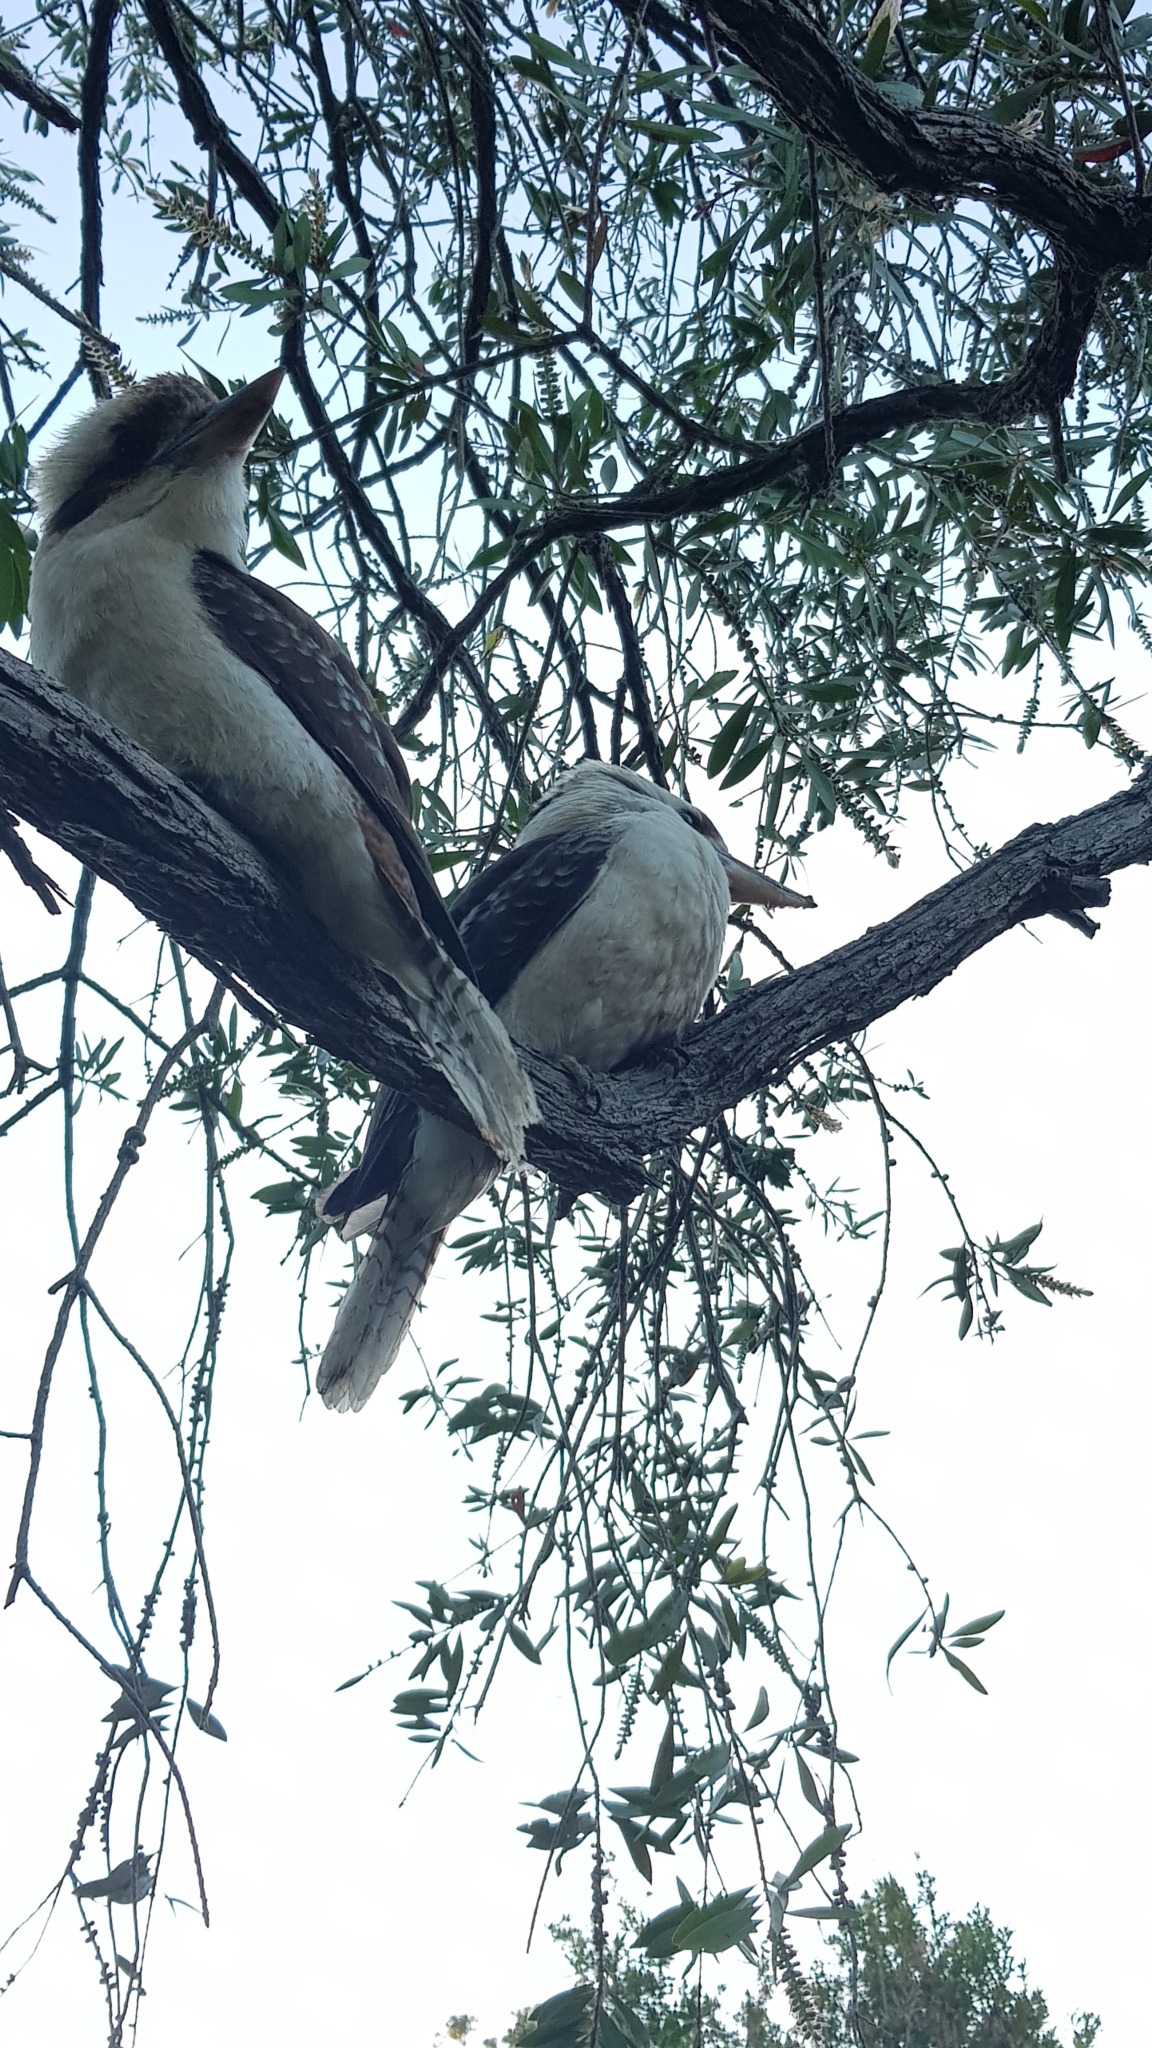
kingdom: Animalia
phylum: Chordata
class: Aves
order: Coraciiformes
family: Alcedinidae
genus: Dacelo
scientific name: Dacelo novaeguineae
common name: Laughing kookaburra
